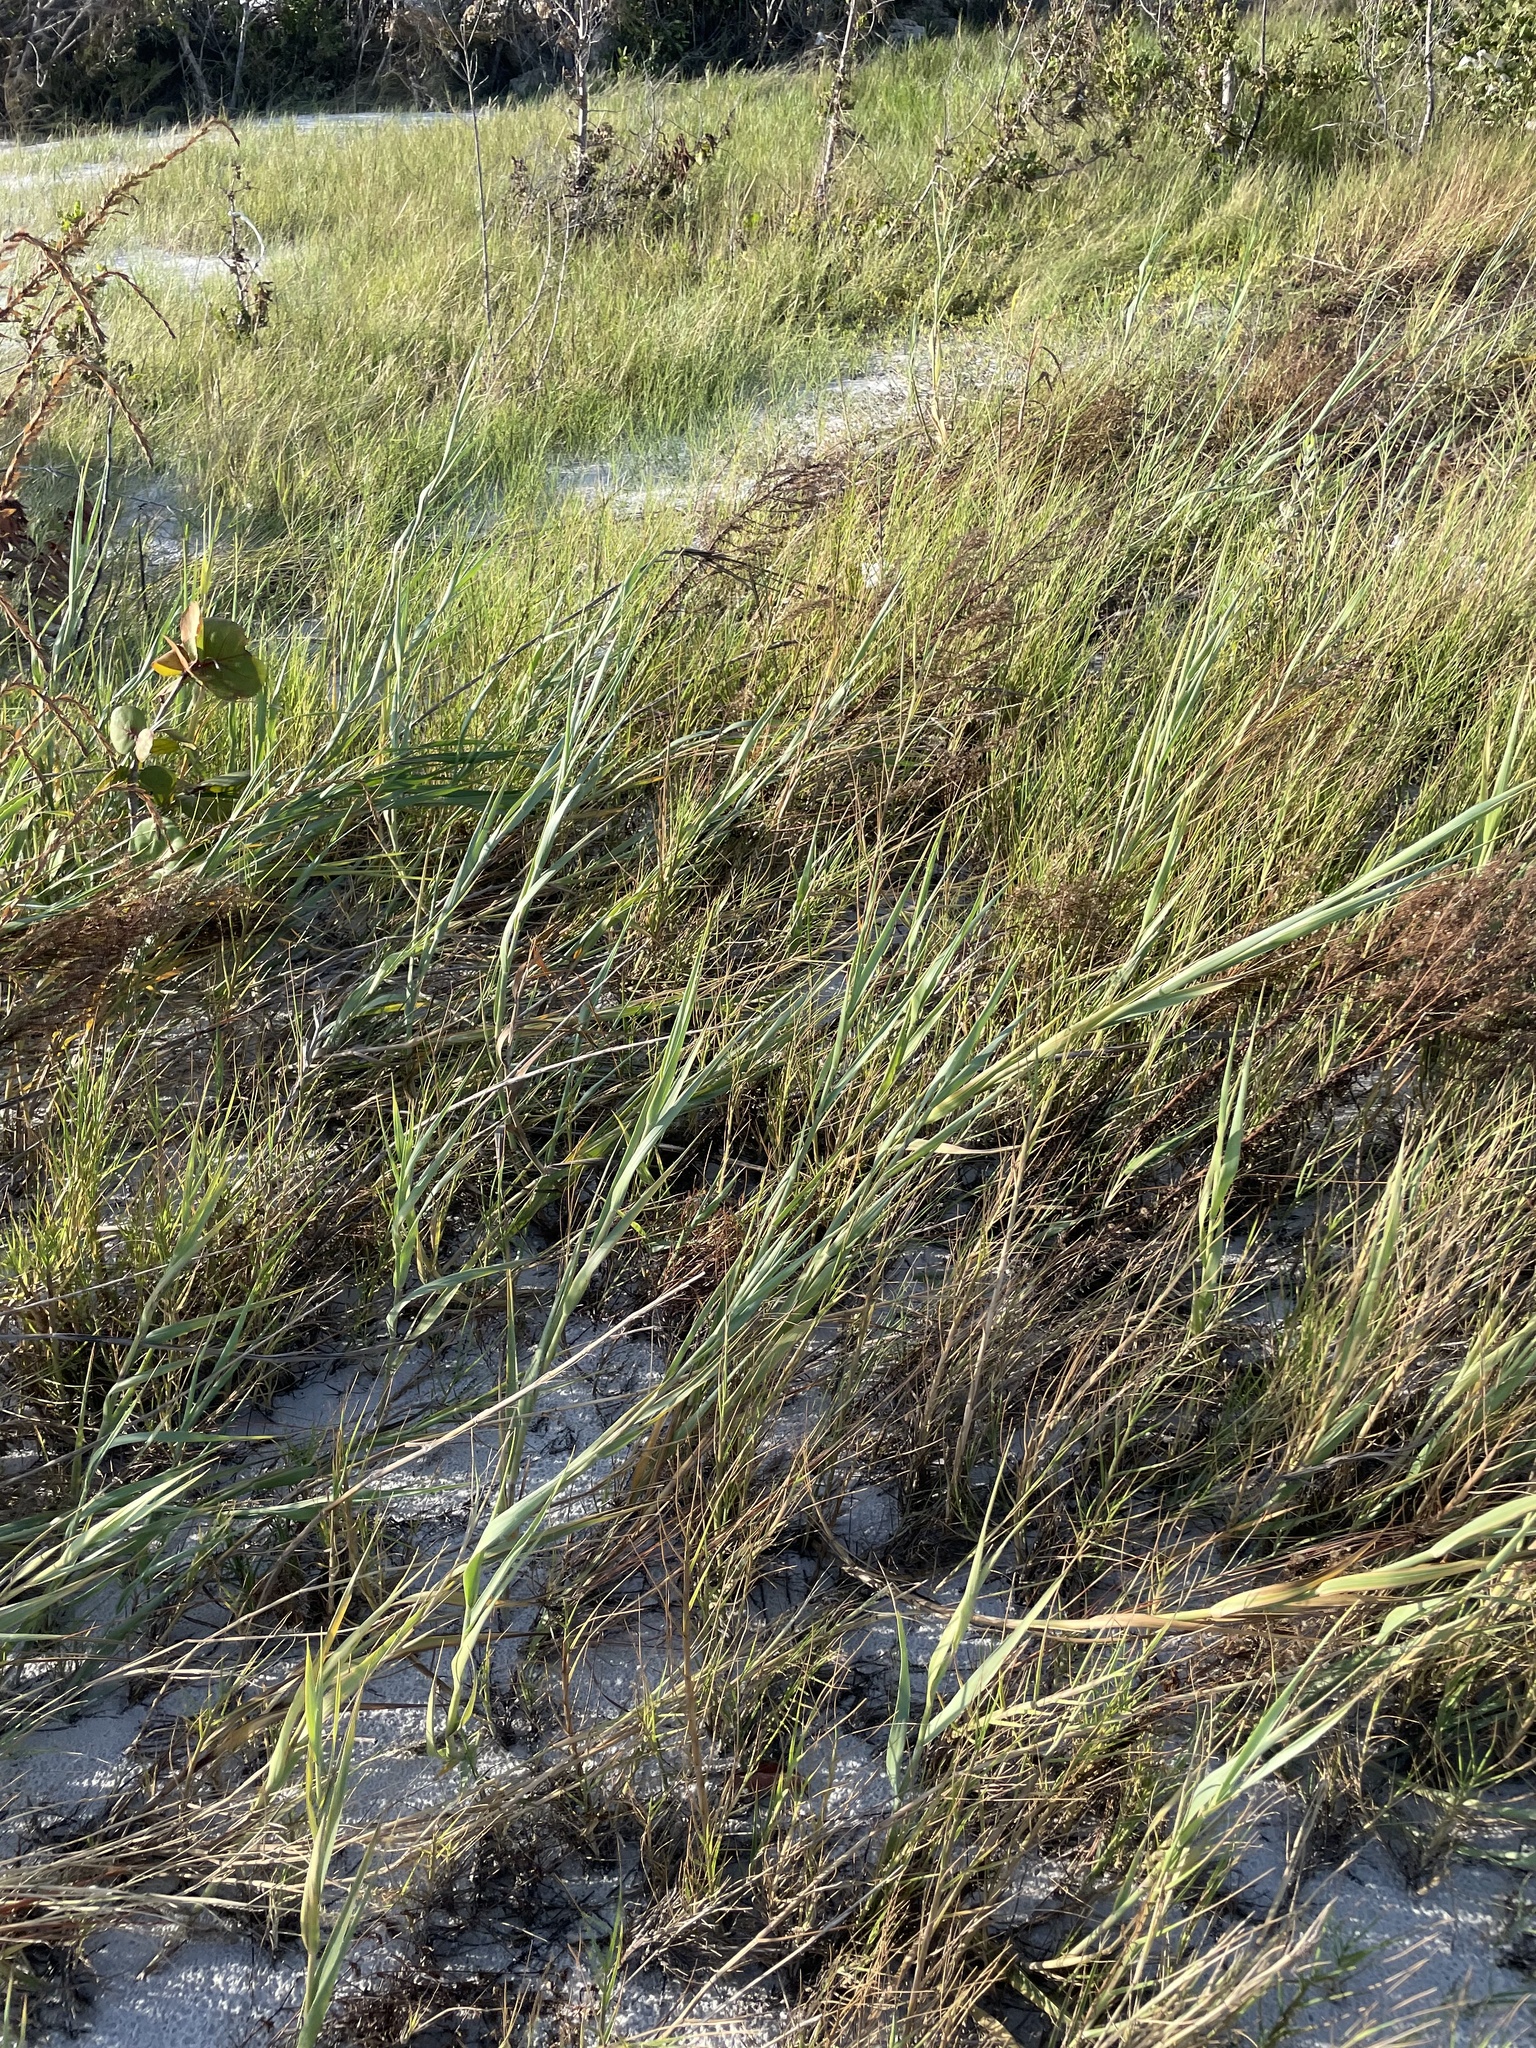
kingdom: Plantae
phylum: Tracheophyta
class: Liliopsida
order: Poales
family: Poaceae
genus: Panicum
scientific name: Panicum amarum
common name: Bitter panicum
